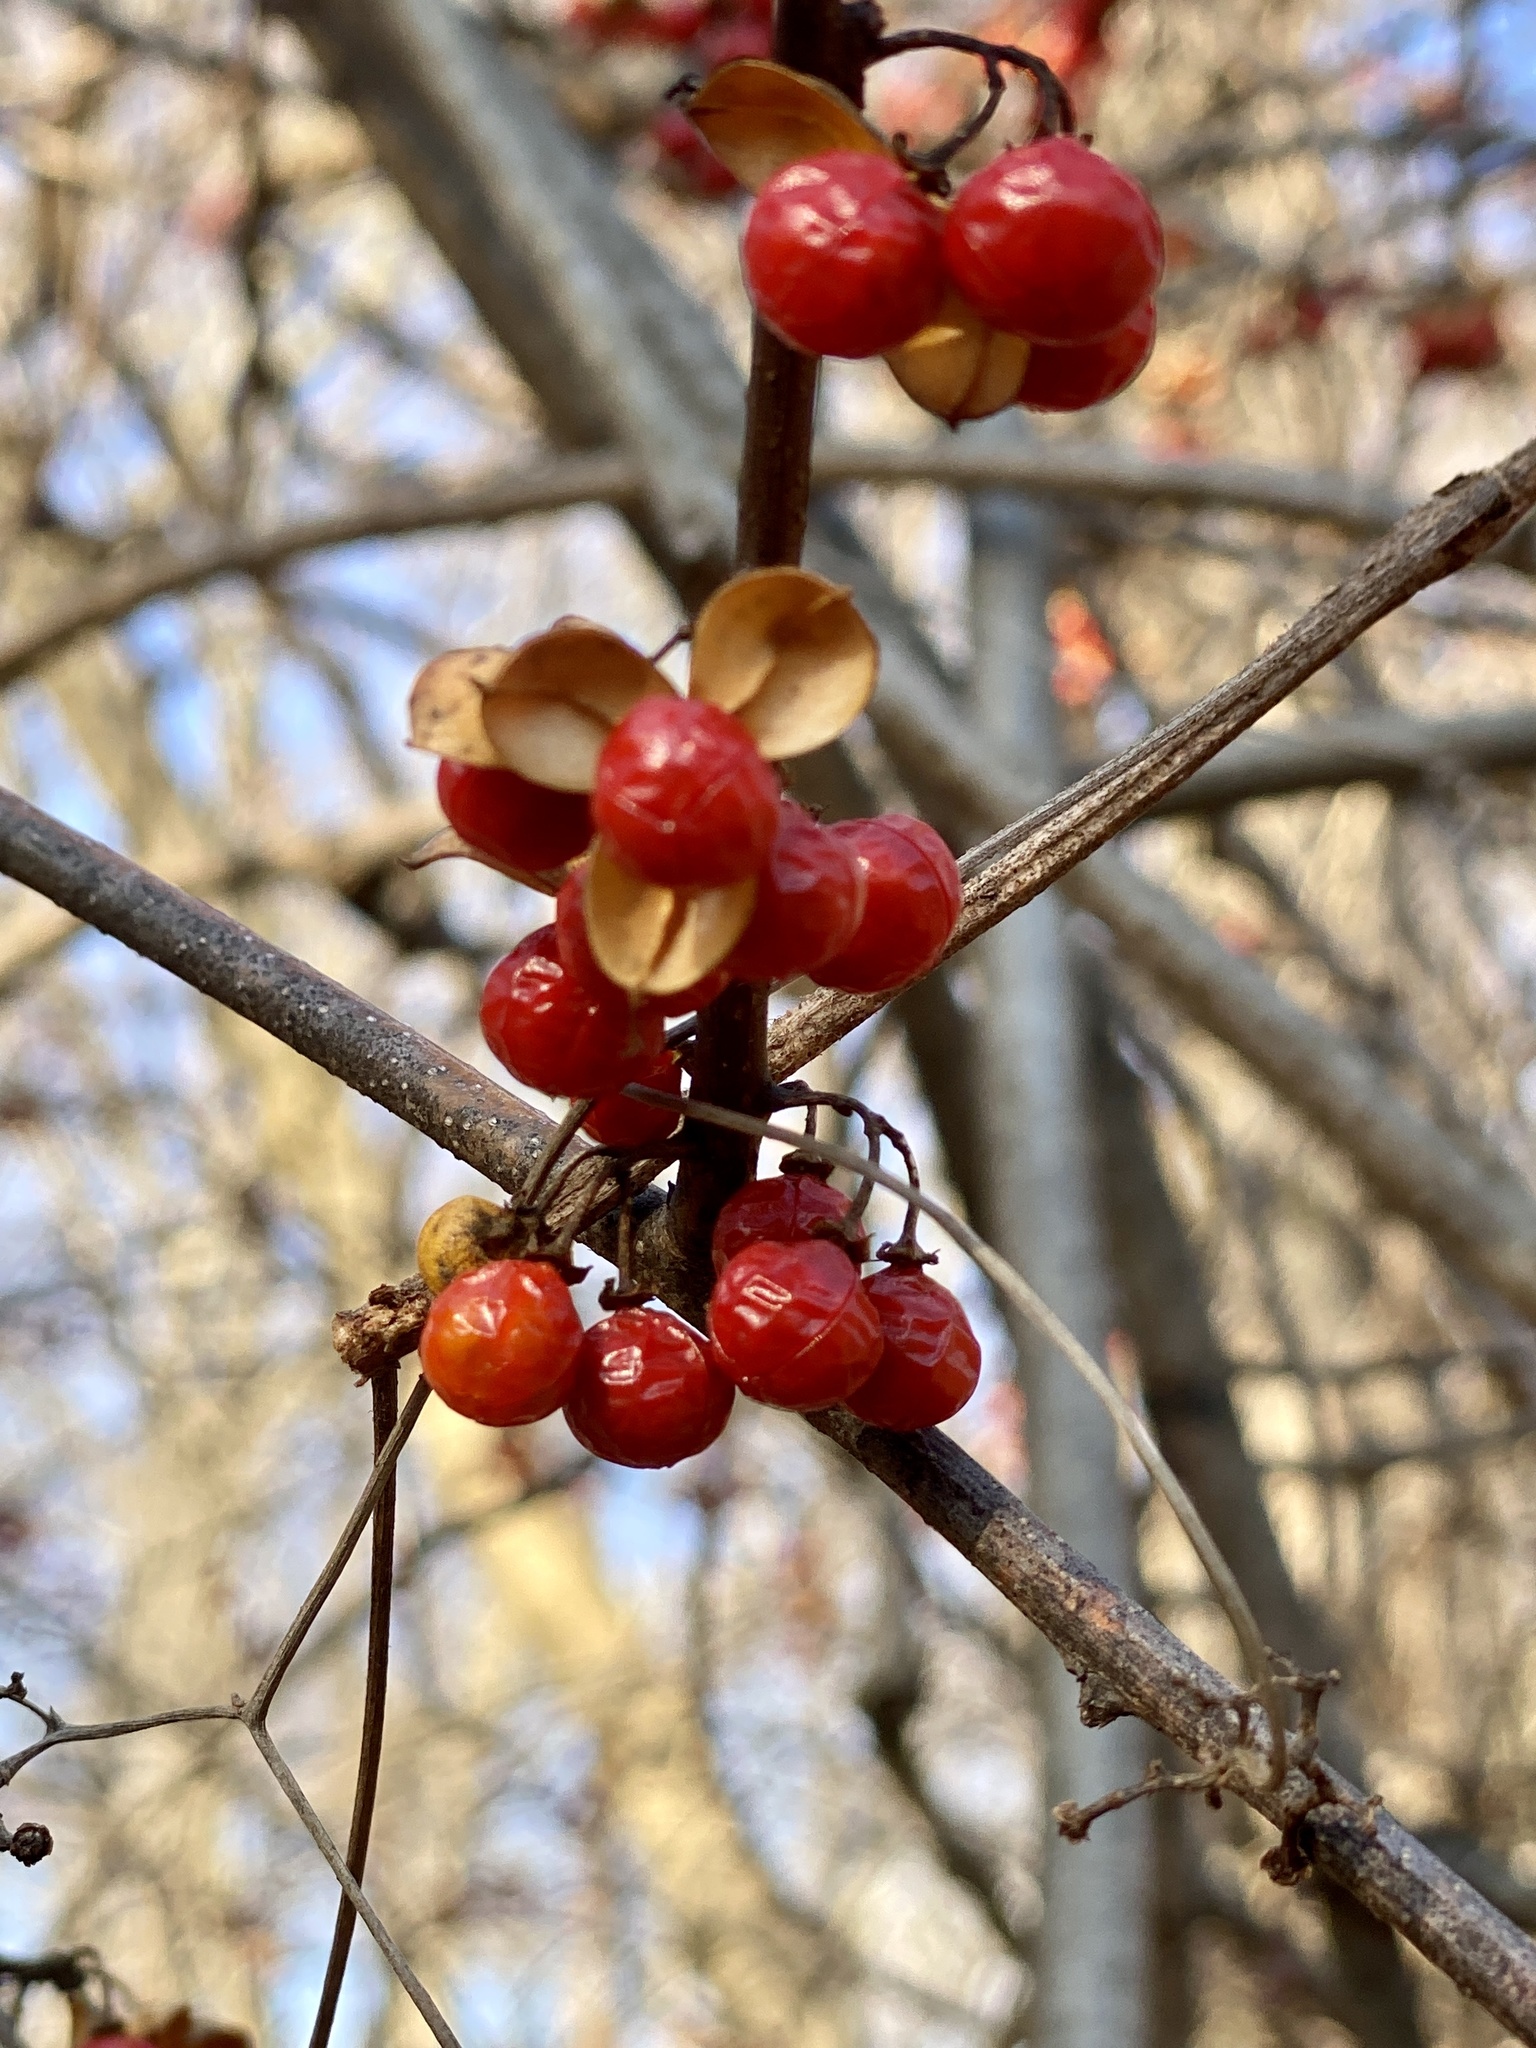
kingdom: Plantae
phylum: Tracheophyta
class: Magnoliopsida
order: Celastrales
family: Celastraceae
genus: Celastrus
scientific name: Celastrus orbiculatus
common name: Oriental bittersweet
